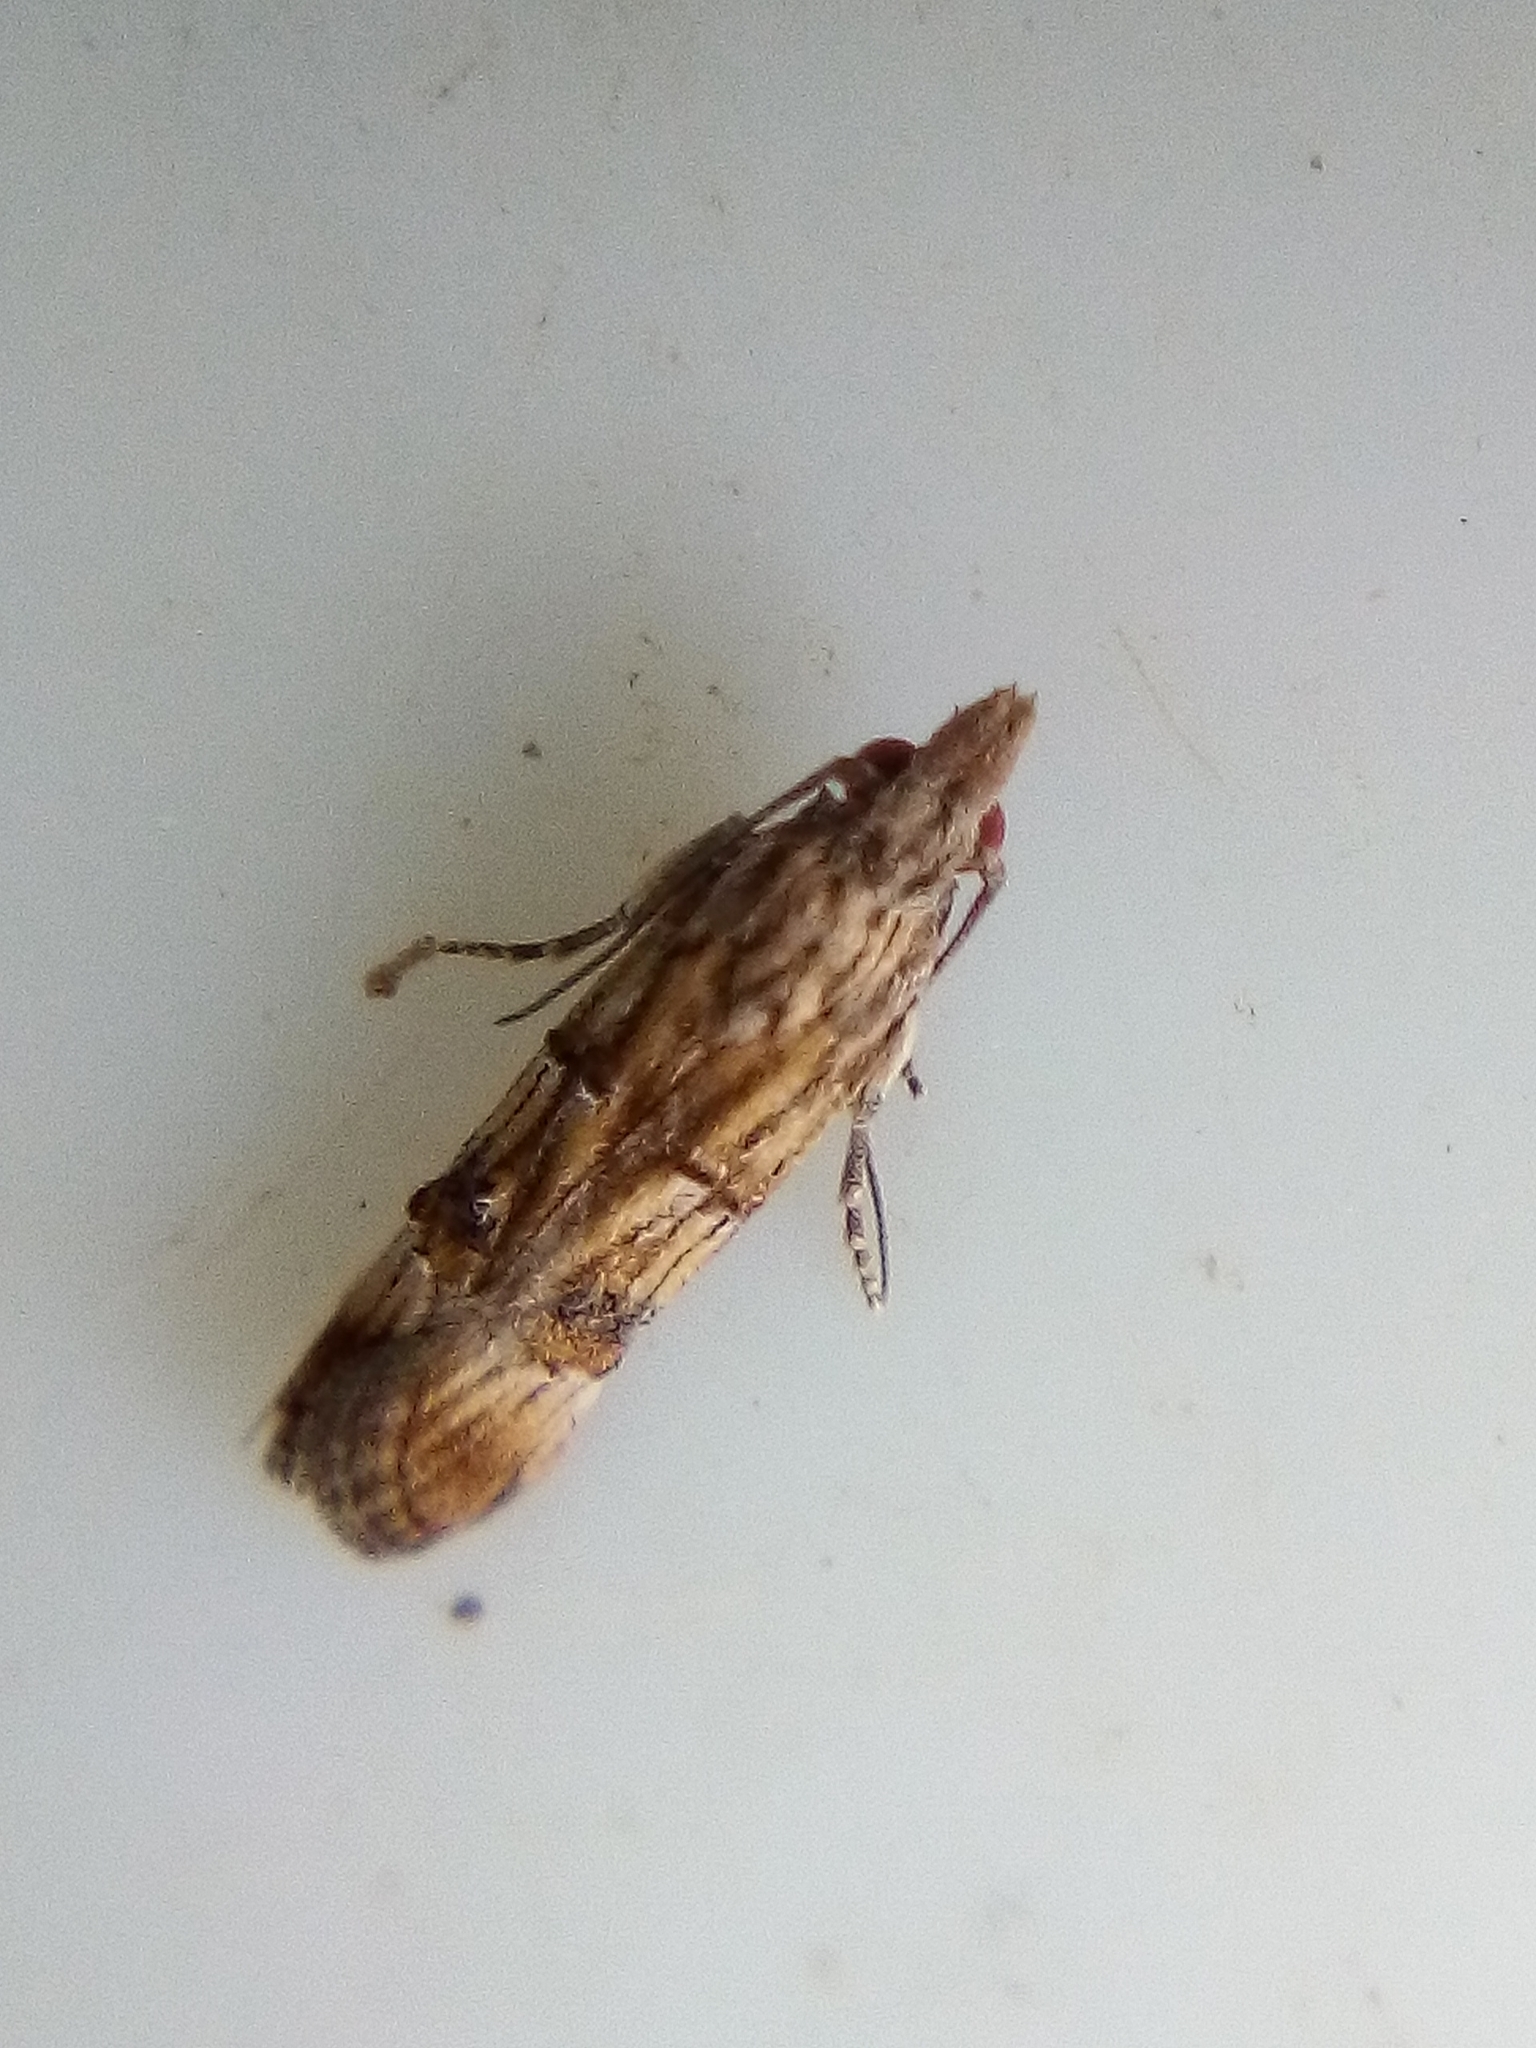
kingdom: Animalia
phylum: Arthropoda
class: Insecta
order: Lepidoptera
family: Carposinidae
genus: Carposina
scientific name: Carposina neurophorella
